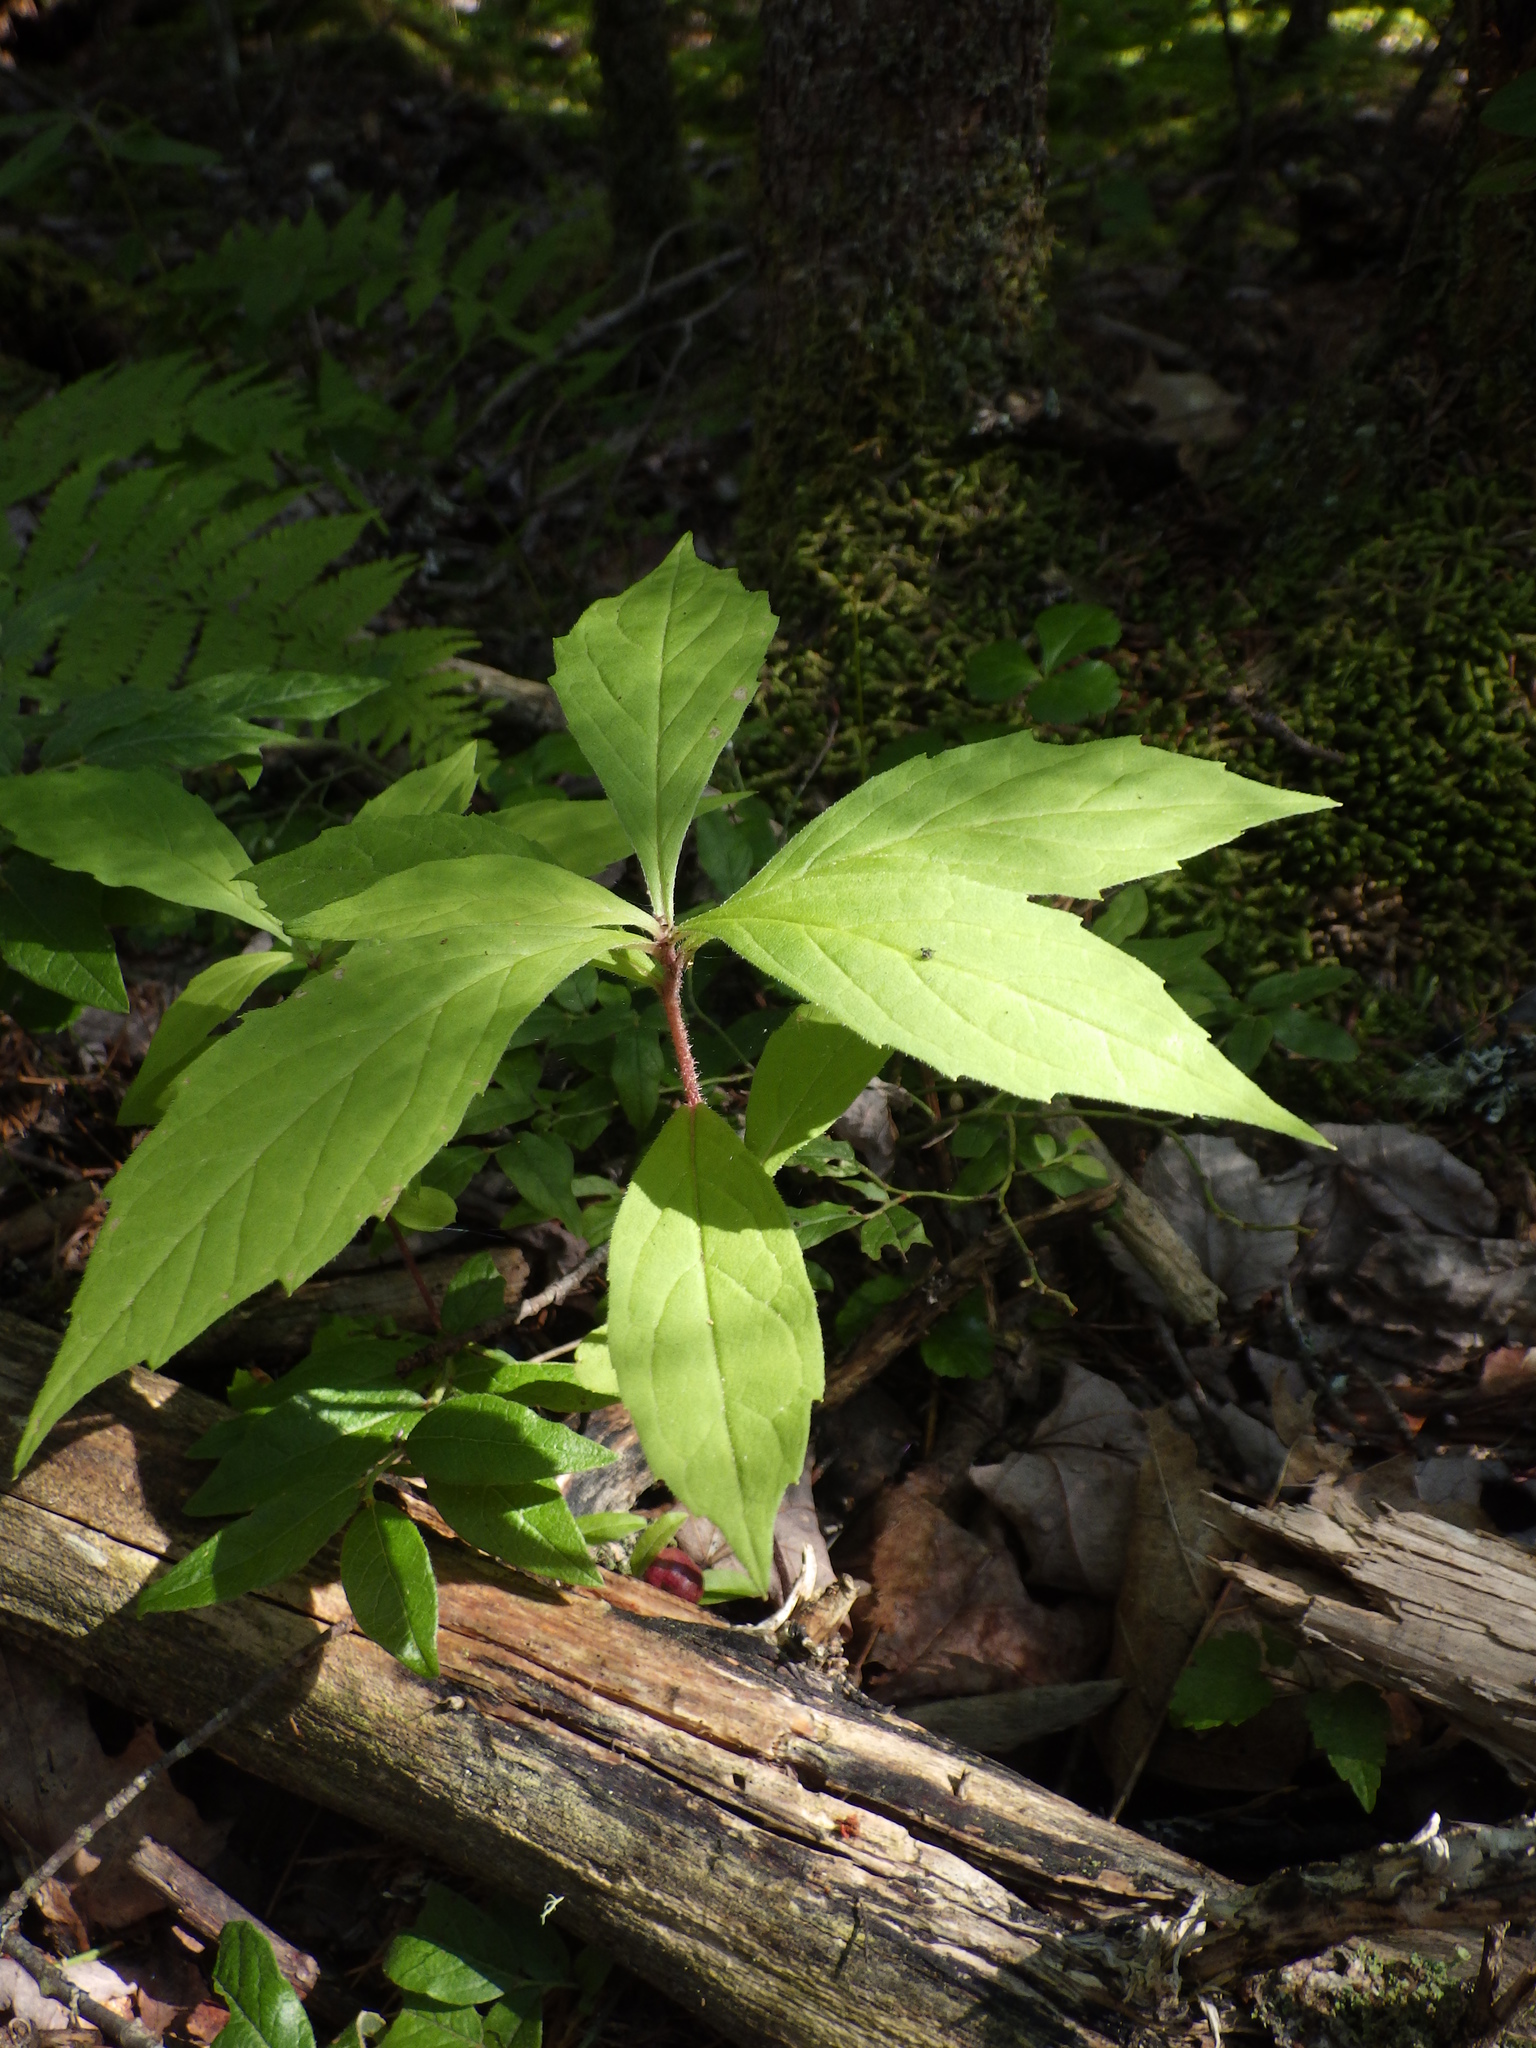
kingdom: Plantae
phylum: Tracheophyta
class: Magnoliopsida
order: Asterales
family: Asteraceae
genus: Oclemena
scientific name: Oclemena acuminata
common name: Mountain aster
